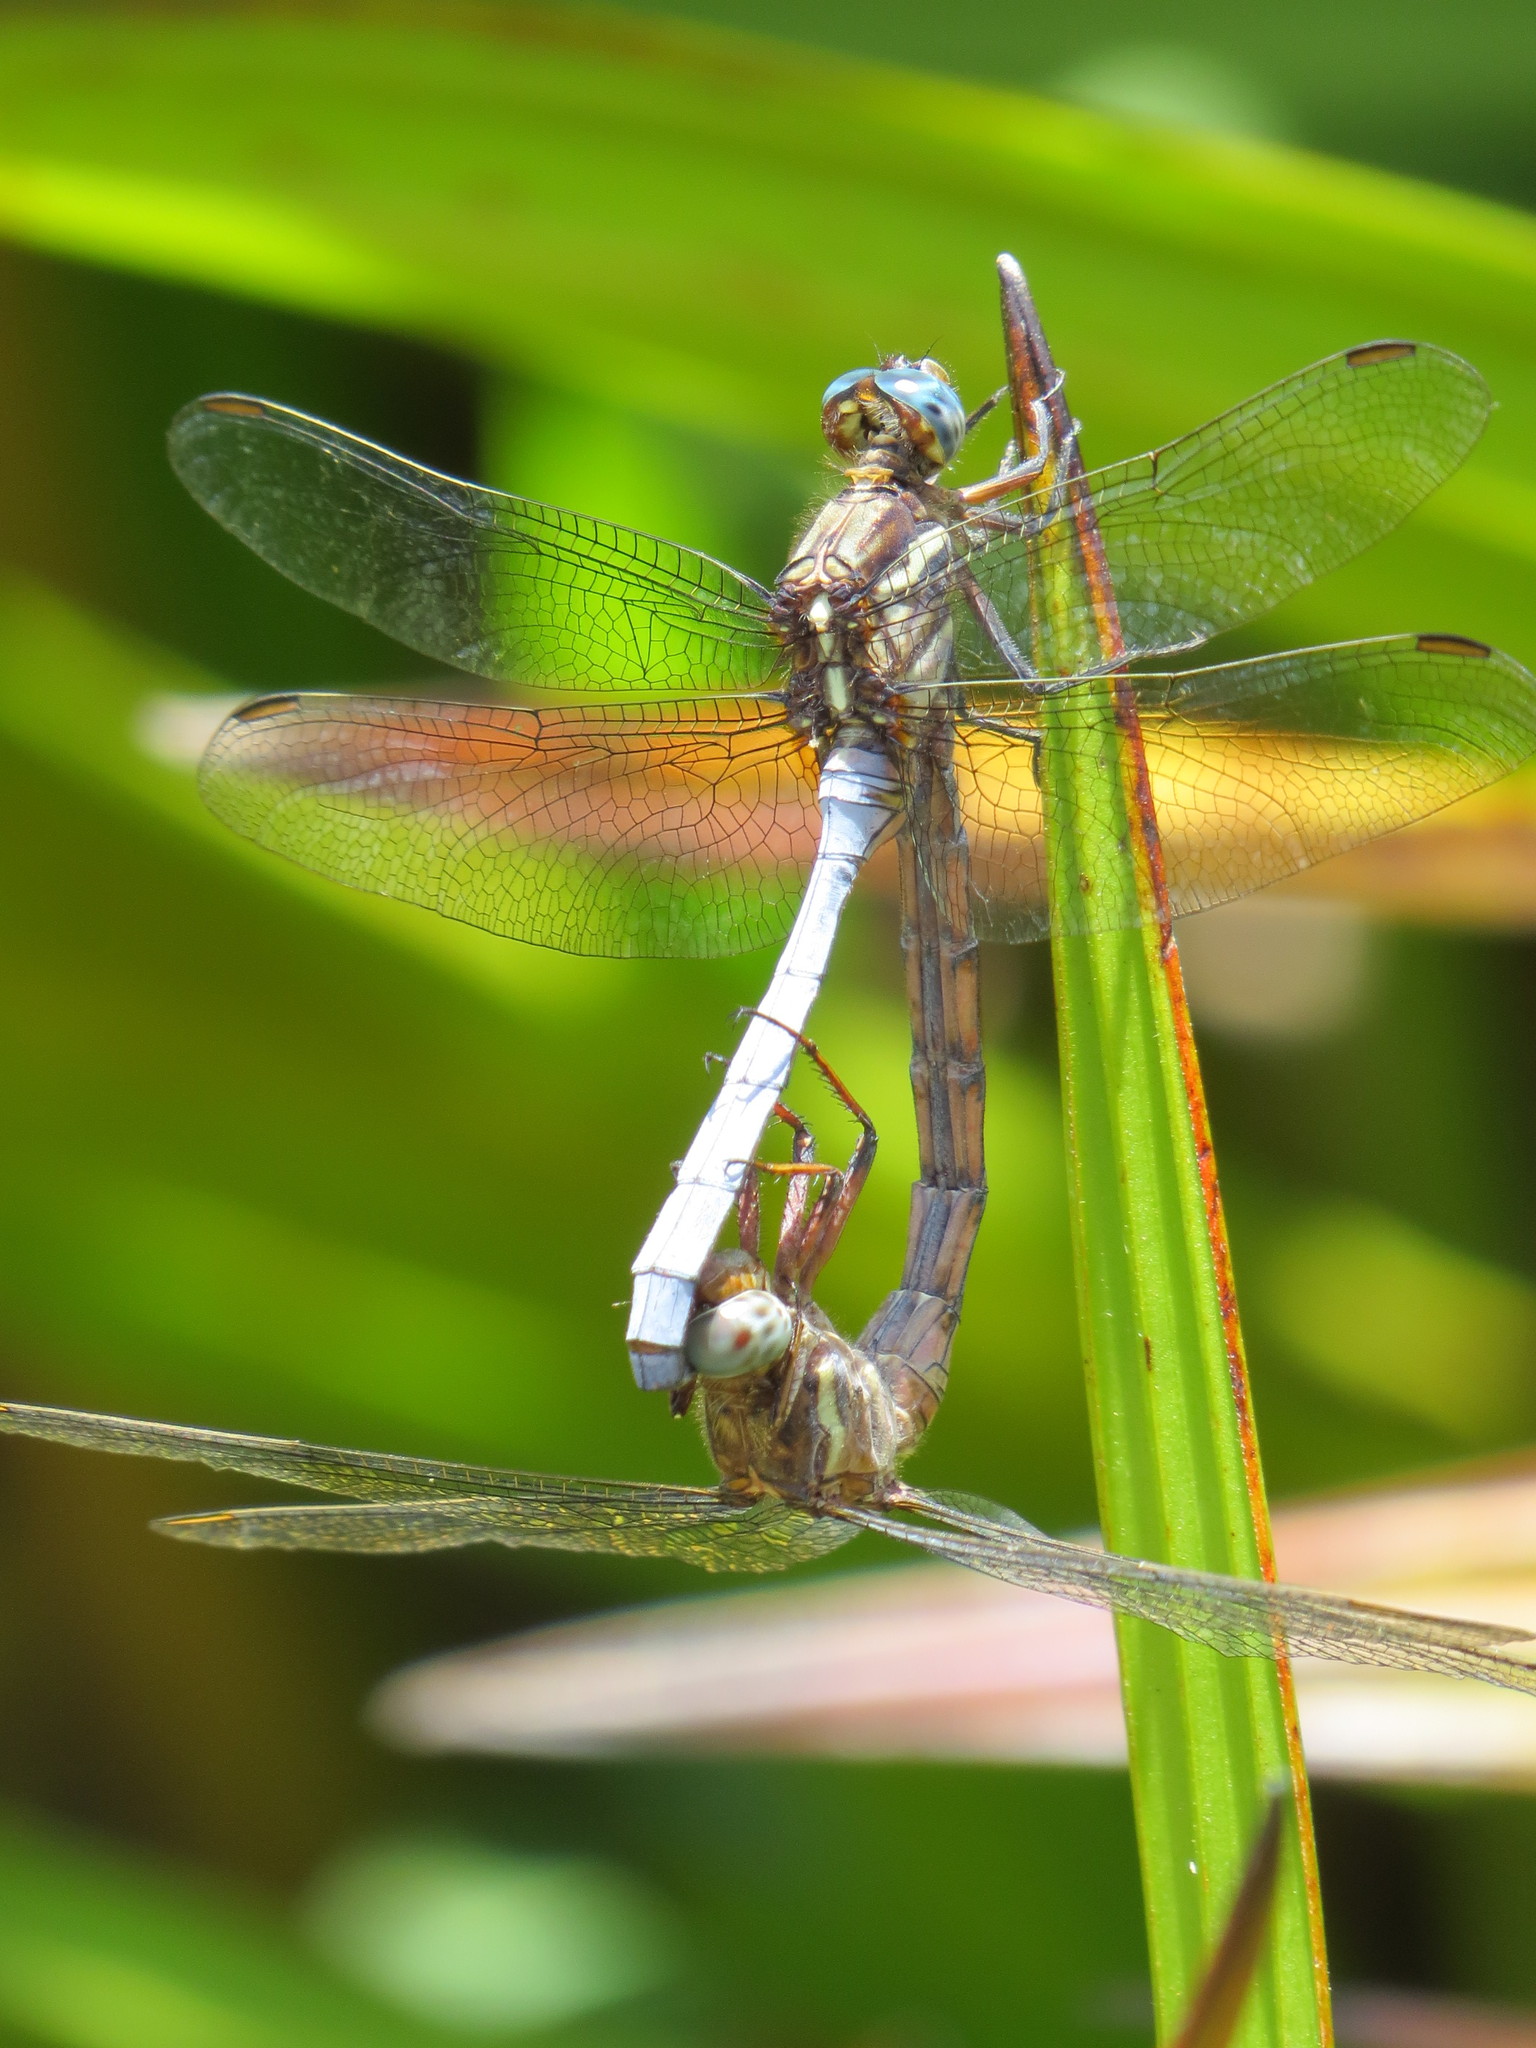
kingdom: Animalia
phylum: Arthropoda
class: Insecta
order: Odonata
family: Libellulidae
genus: Orthetrum
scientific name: Orthetrum julia
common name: Julia skimmer
